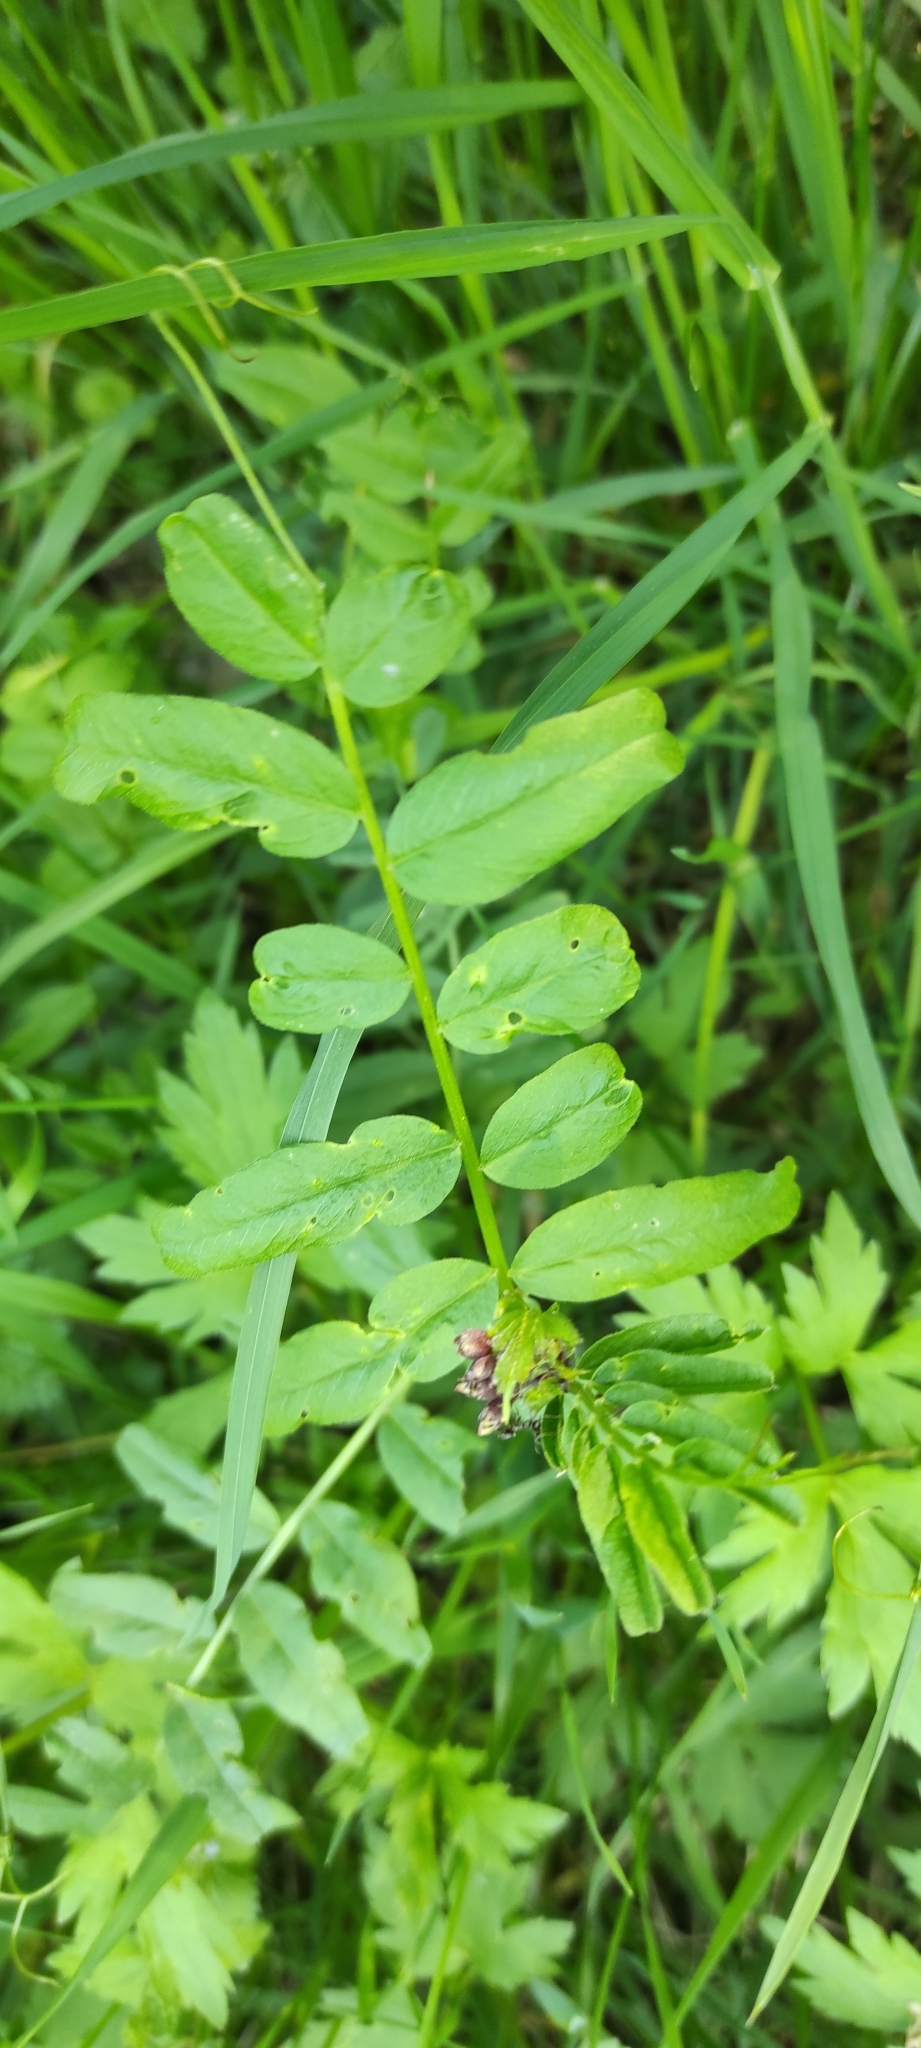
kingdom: Plantae
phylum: Tracheophyta
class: Magnoliopsida
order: Fabales
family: Fabaceae
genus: Vicia
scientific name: Vicia sepium
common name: Bush vetch
